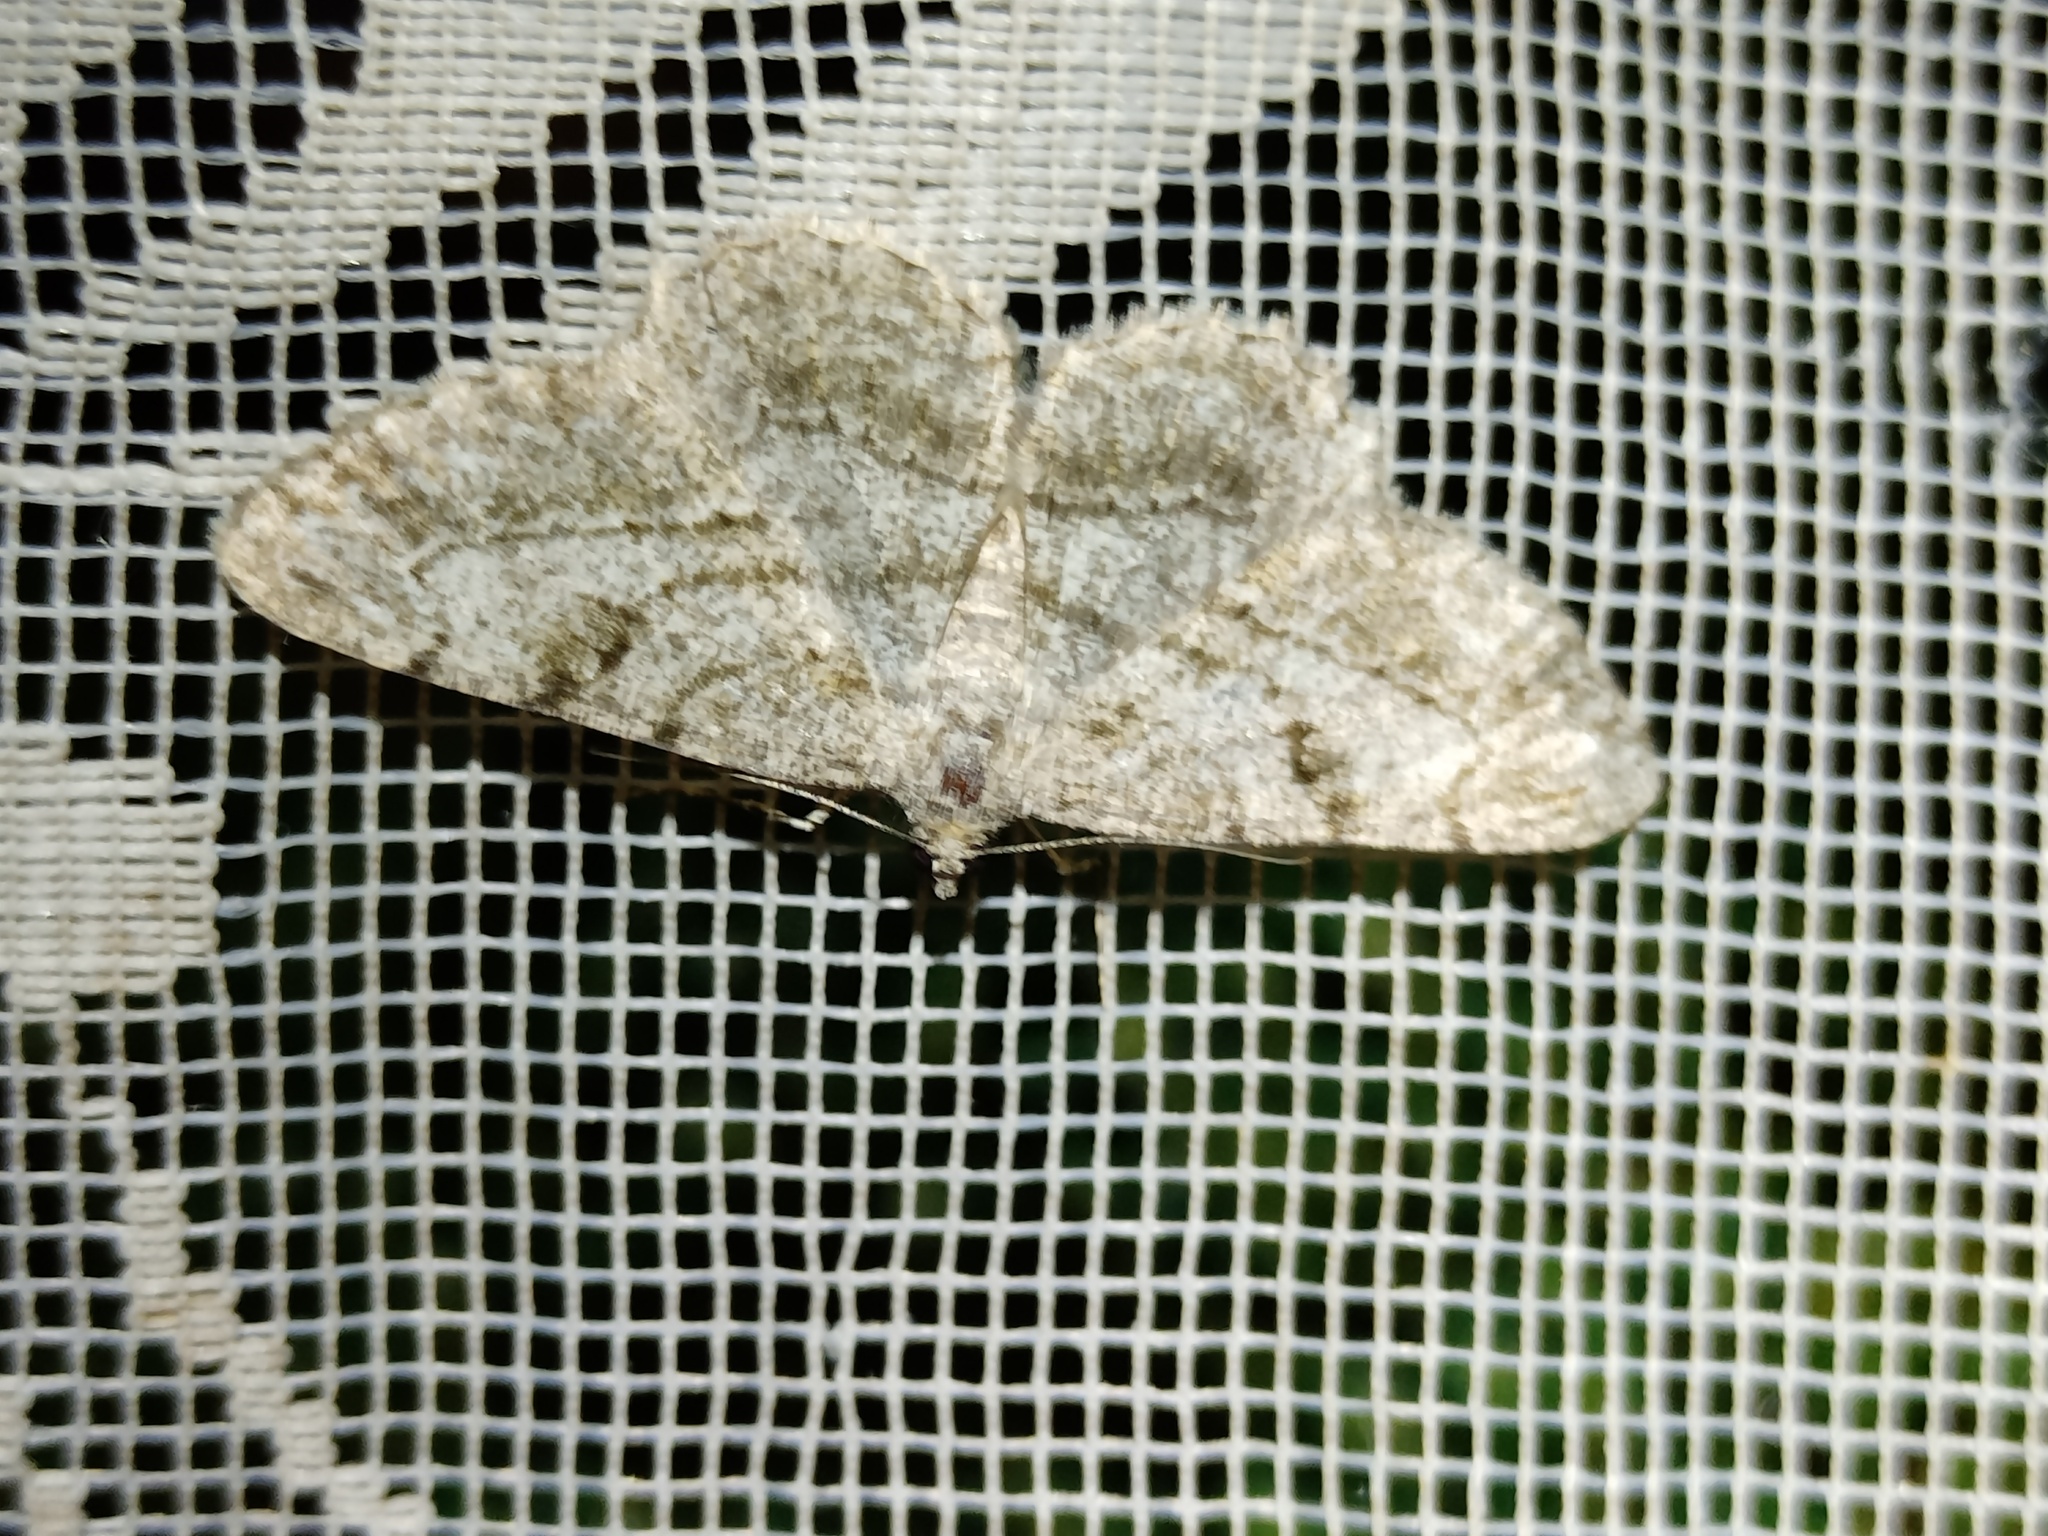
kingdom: Animalia
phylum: Arthropoda
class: Insecta
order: Lepidoptera
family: Geometridae
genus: Peribatodes
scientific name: Peribatodes rhomboidaria
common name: Willow beauty
